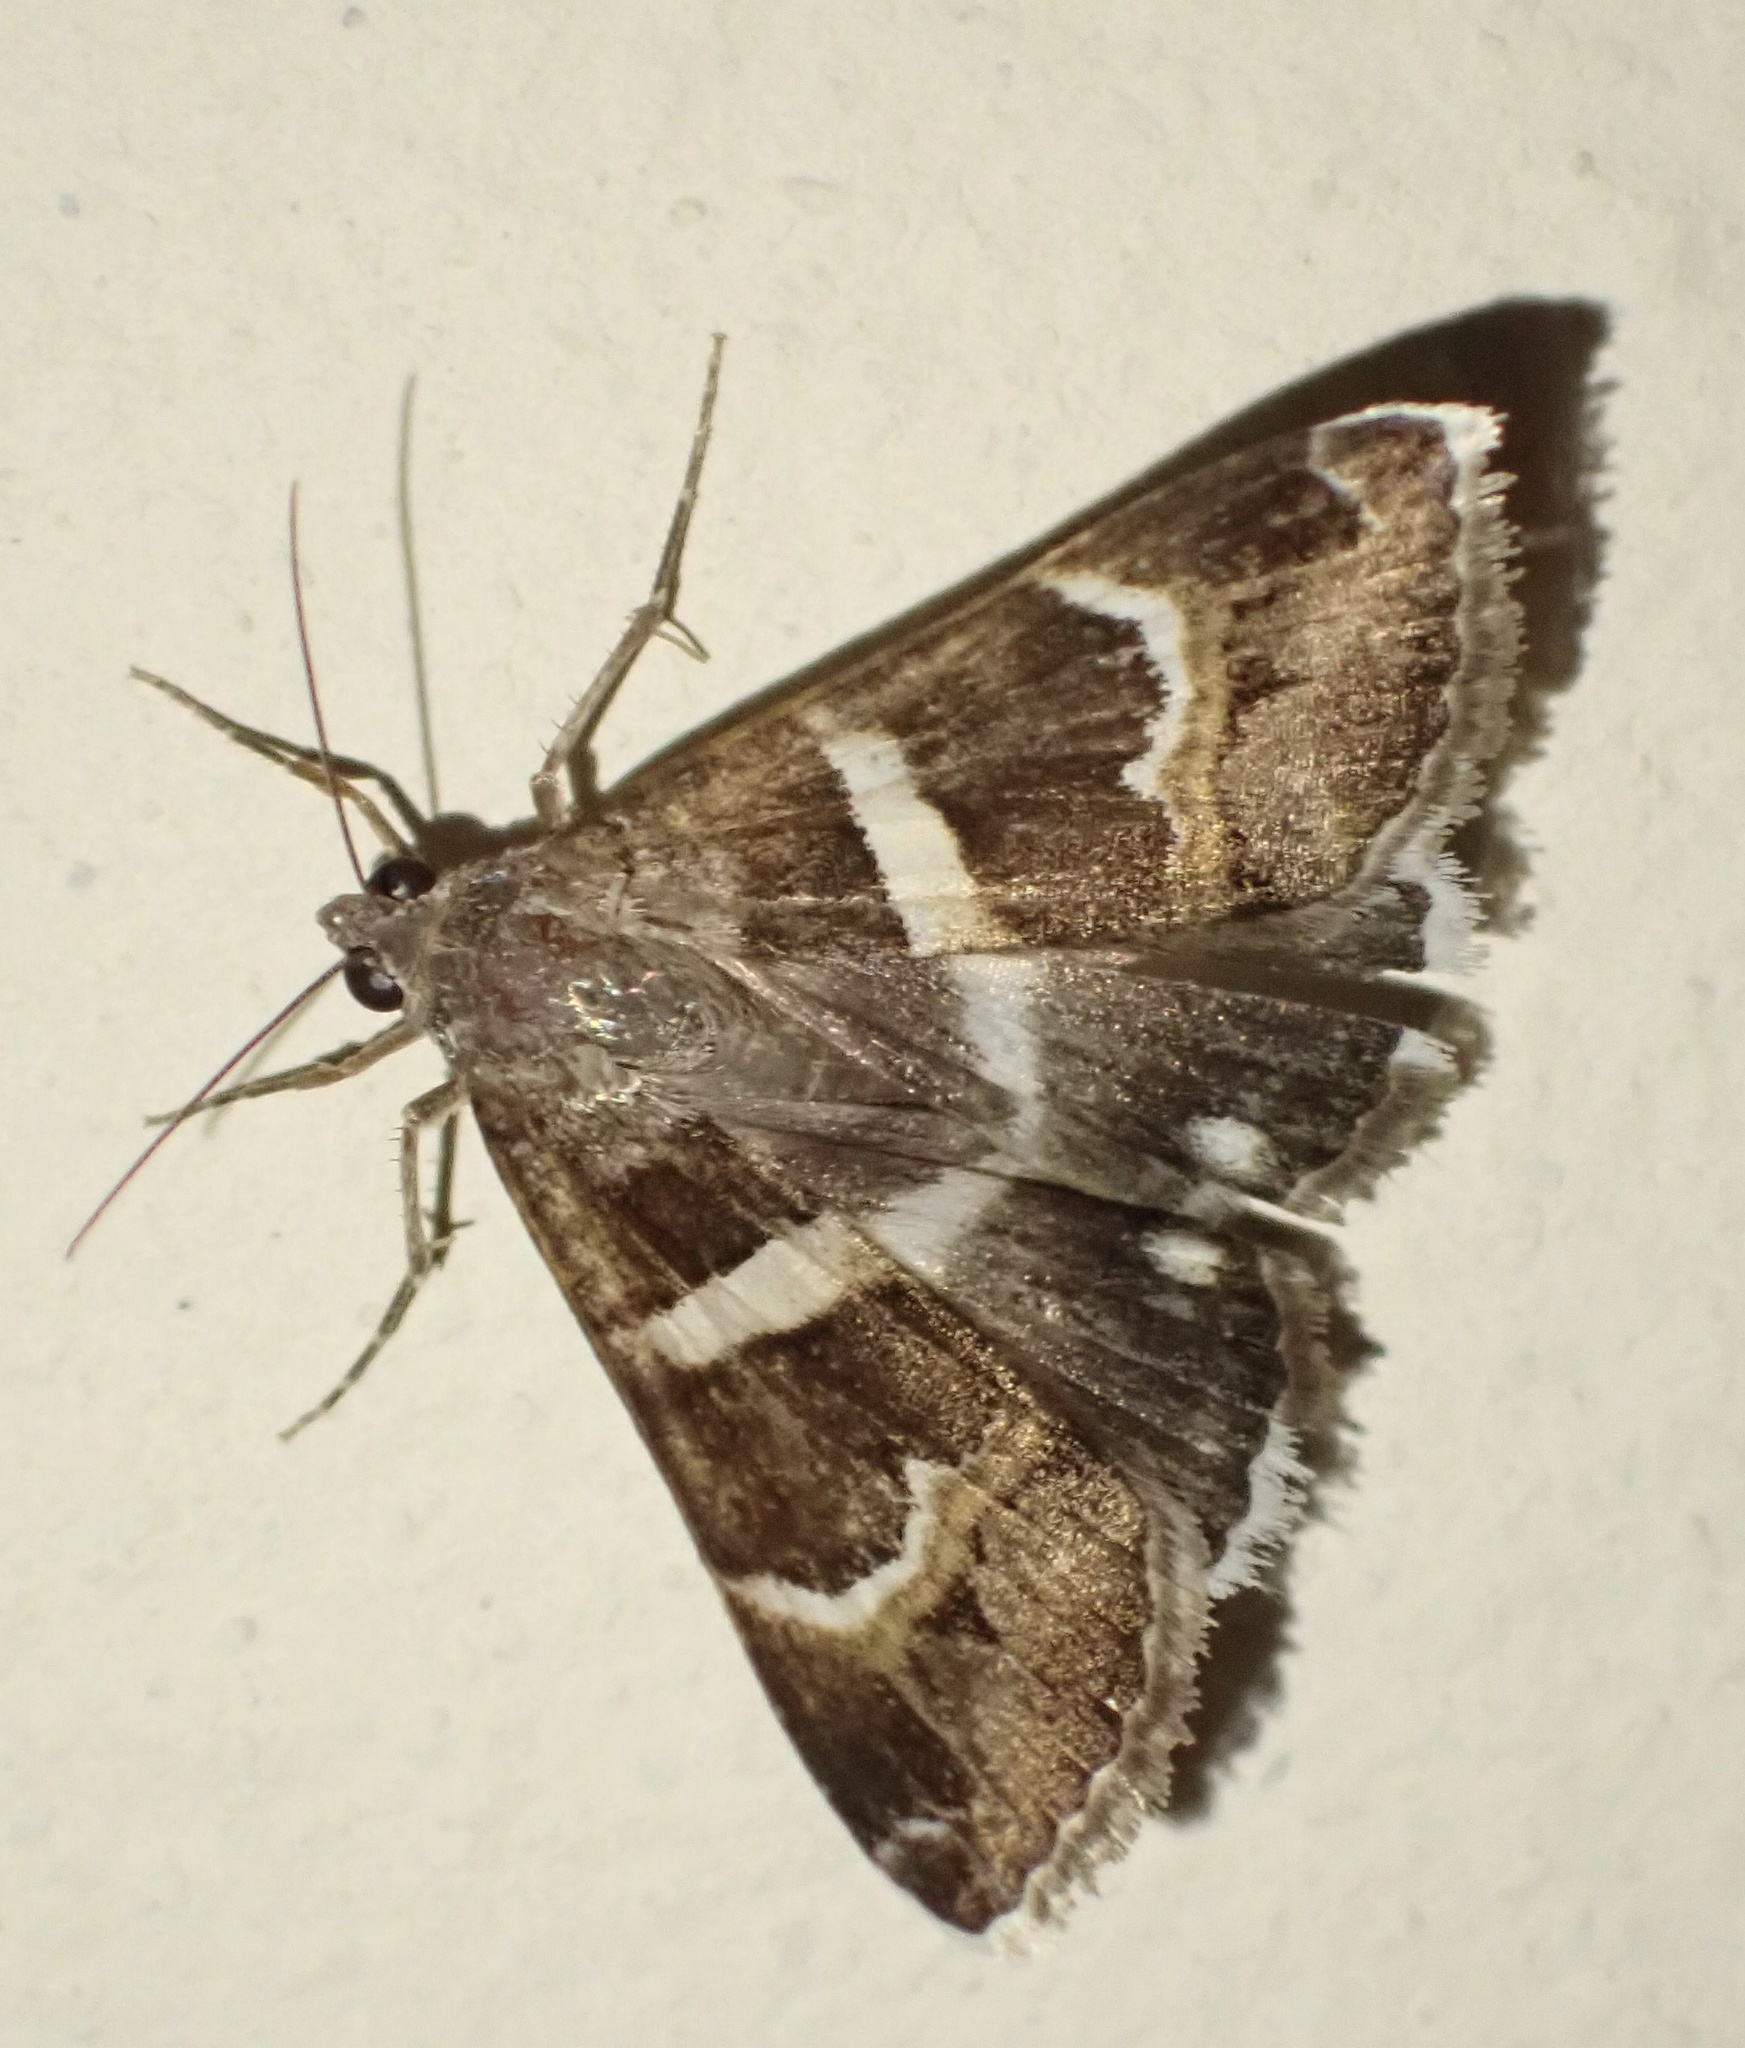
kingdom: Animalia
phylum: Arthropoda
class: Insecta
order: Lepidoptera
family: Erebidae
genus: Grammodes
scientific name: Grammodes stolida
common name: Geometrician
